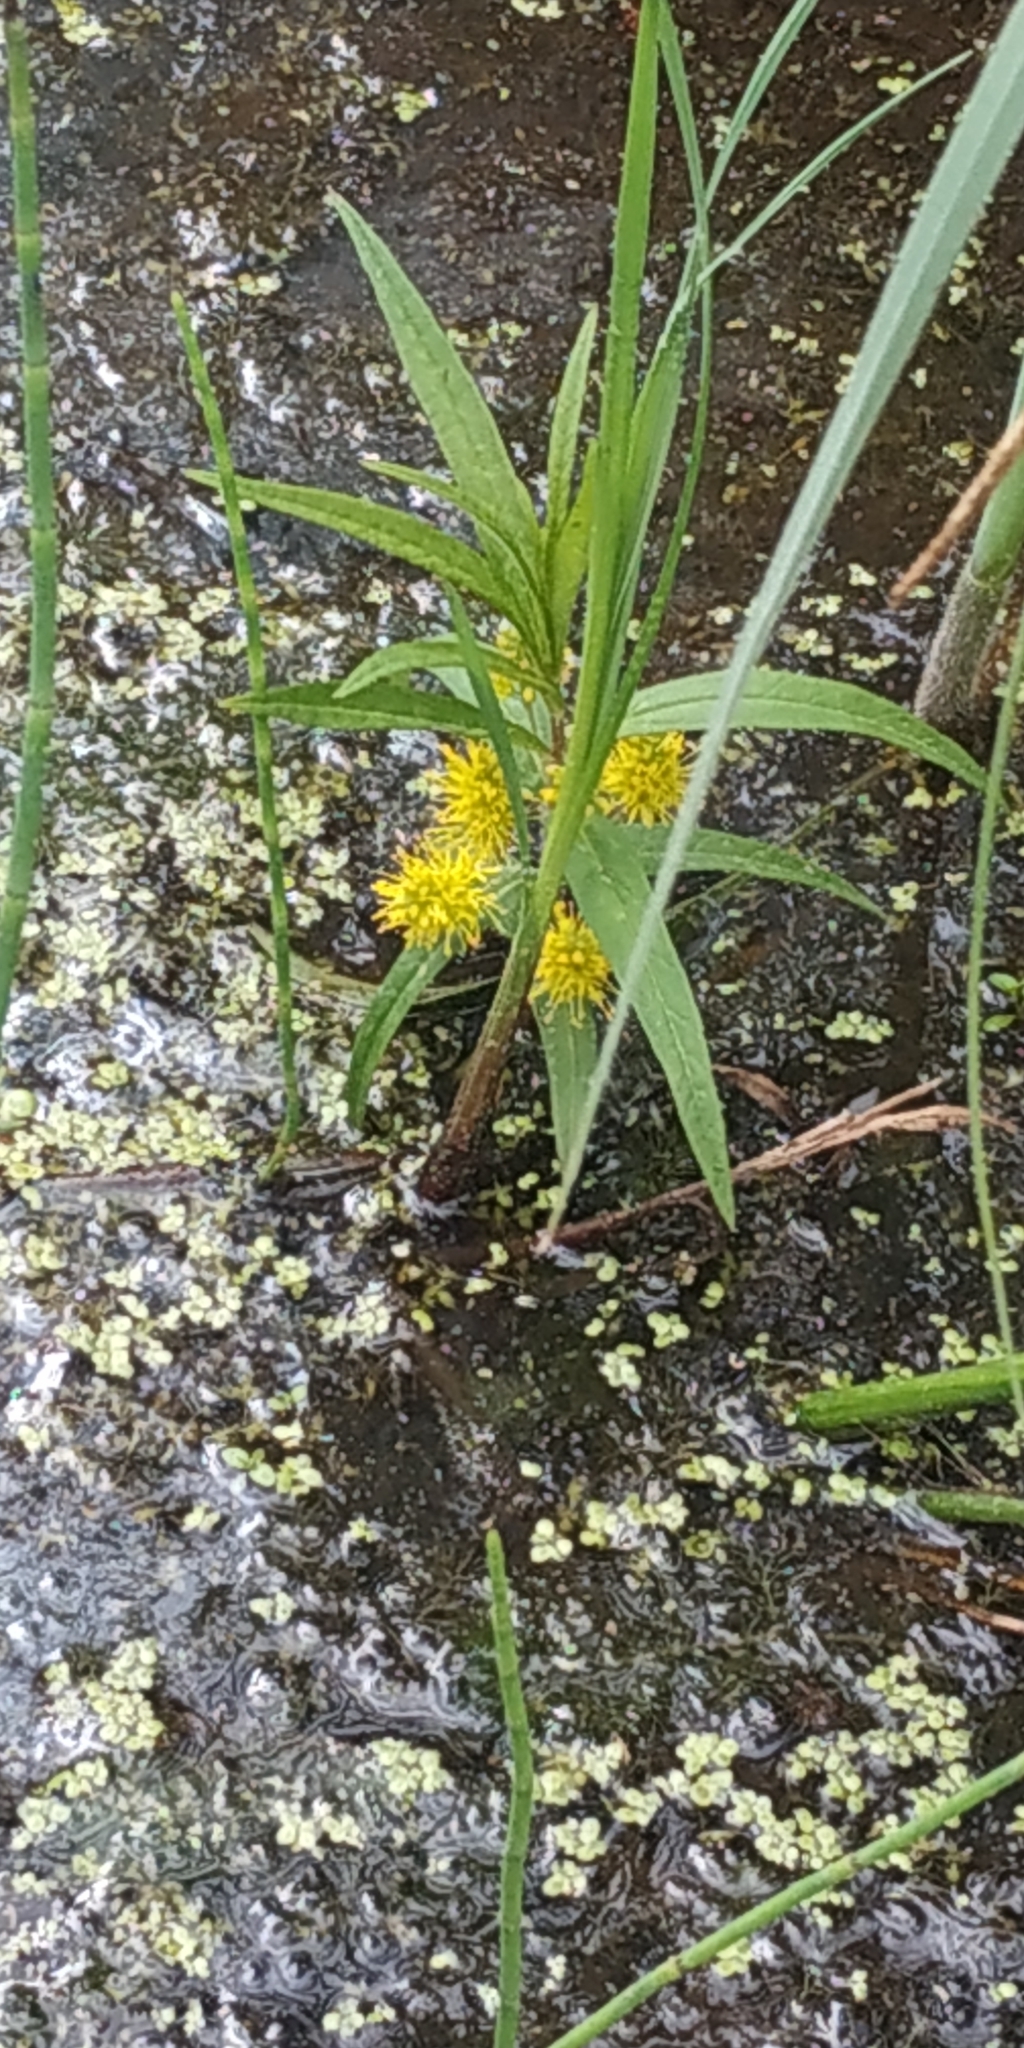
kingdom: Plantae
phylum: Tracheophyta
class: Magnoliopsida
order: Ericales
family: Primulaceae
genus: Lysimachia
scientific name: Lysimachia thyrsiflora
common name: Tufted loosestrife
